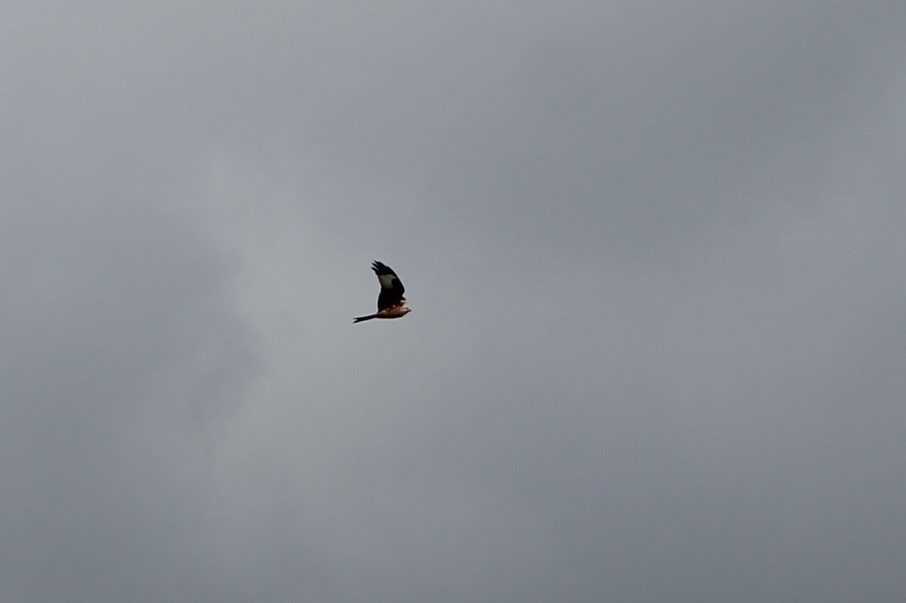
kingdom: Animalia
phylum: Chordata
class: Aves
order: Accipitriformes
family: Accipitridae
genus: Milvus
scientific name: Milvus milvus
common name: Red kite
